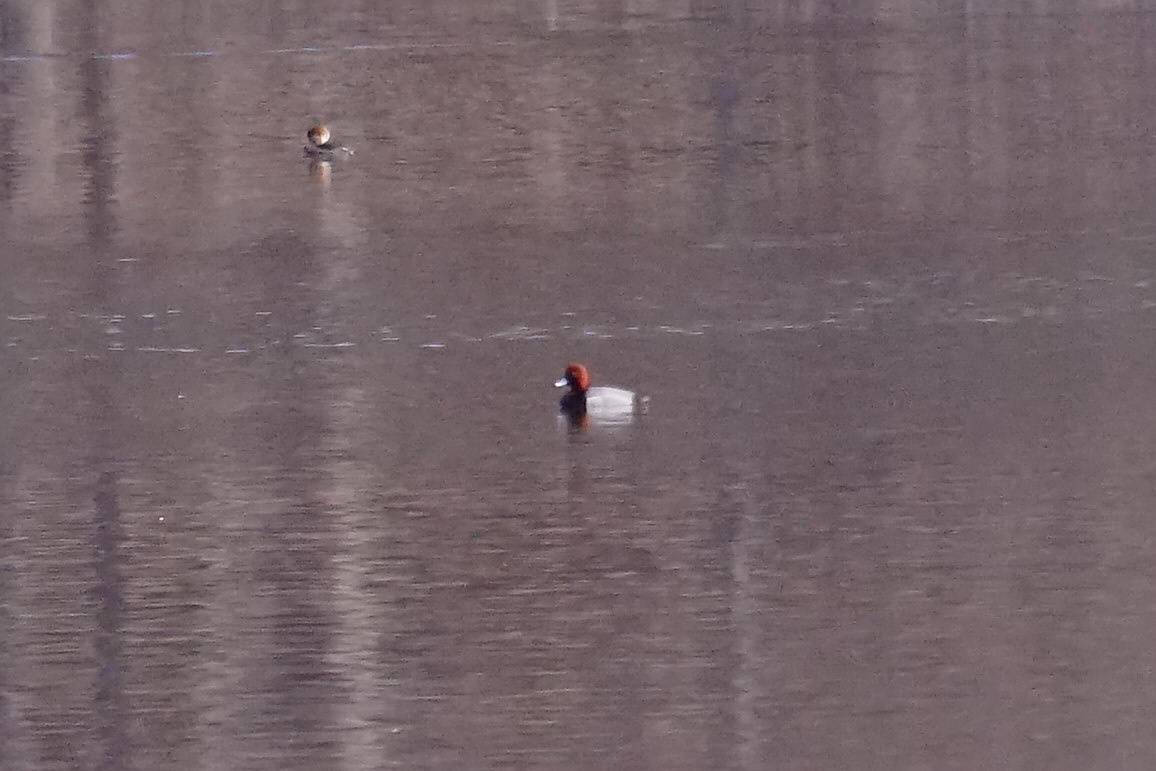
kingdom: Animalia
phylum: Chordata
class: Aves
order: Anseriformes
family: Anatidae
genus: Aythya
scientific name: Aythya americana
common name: Redhead
